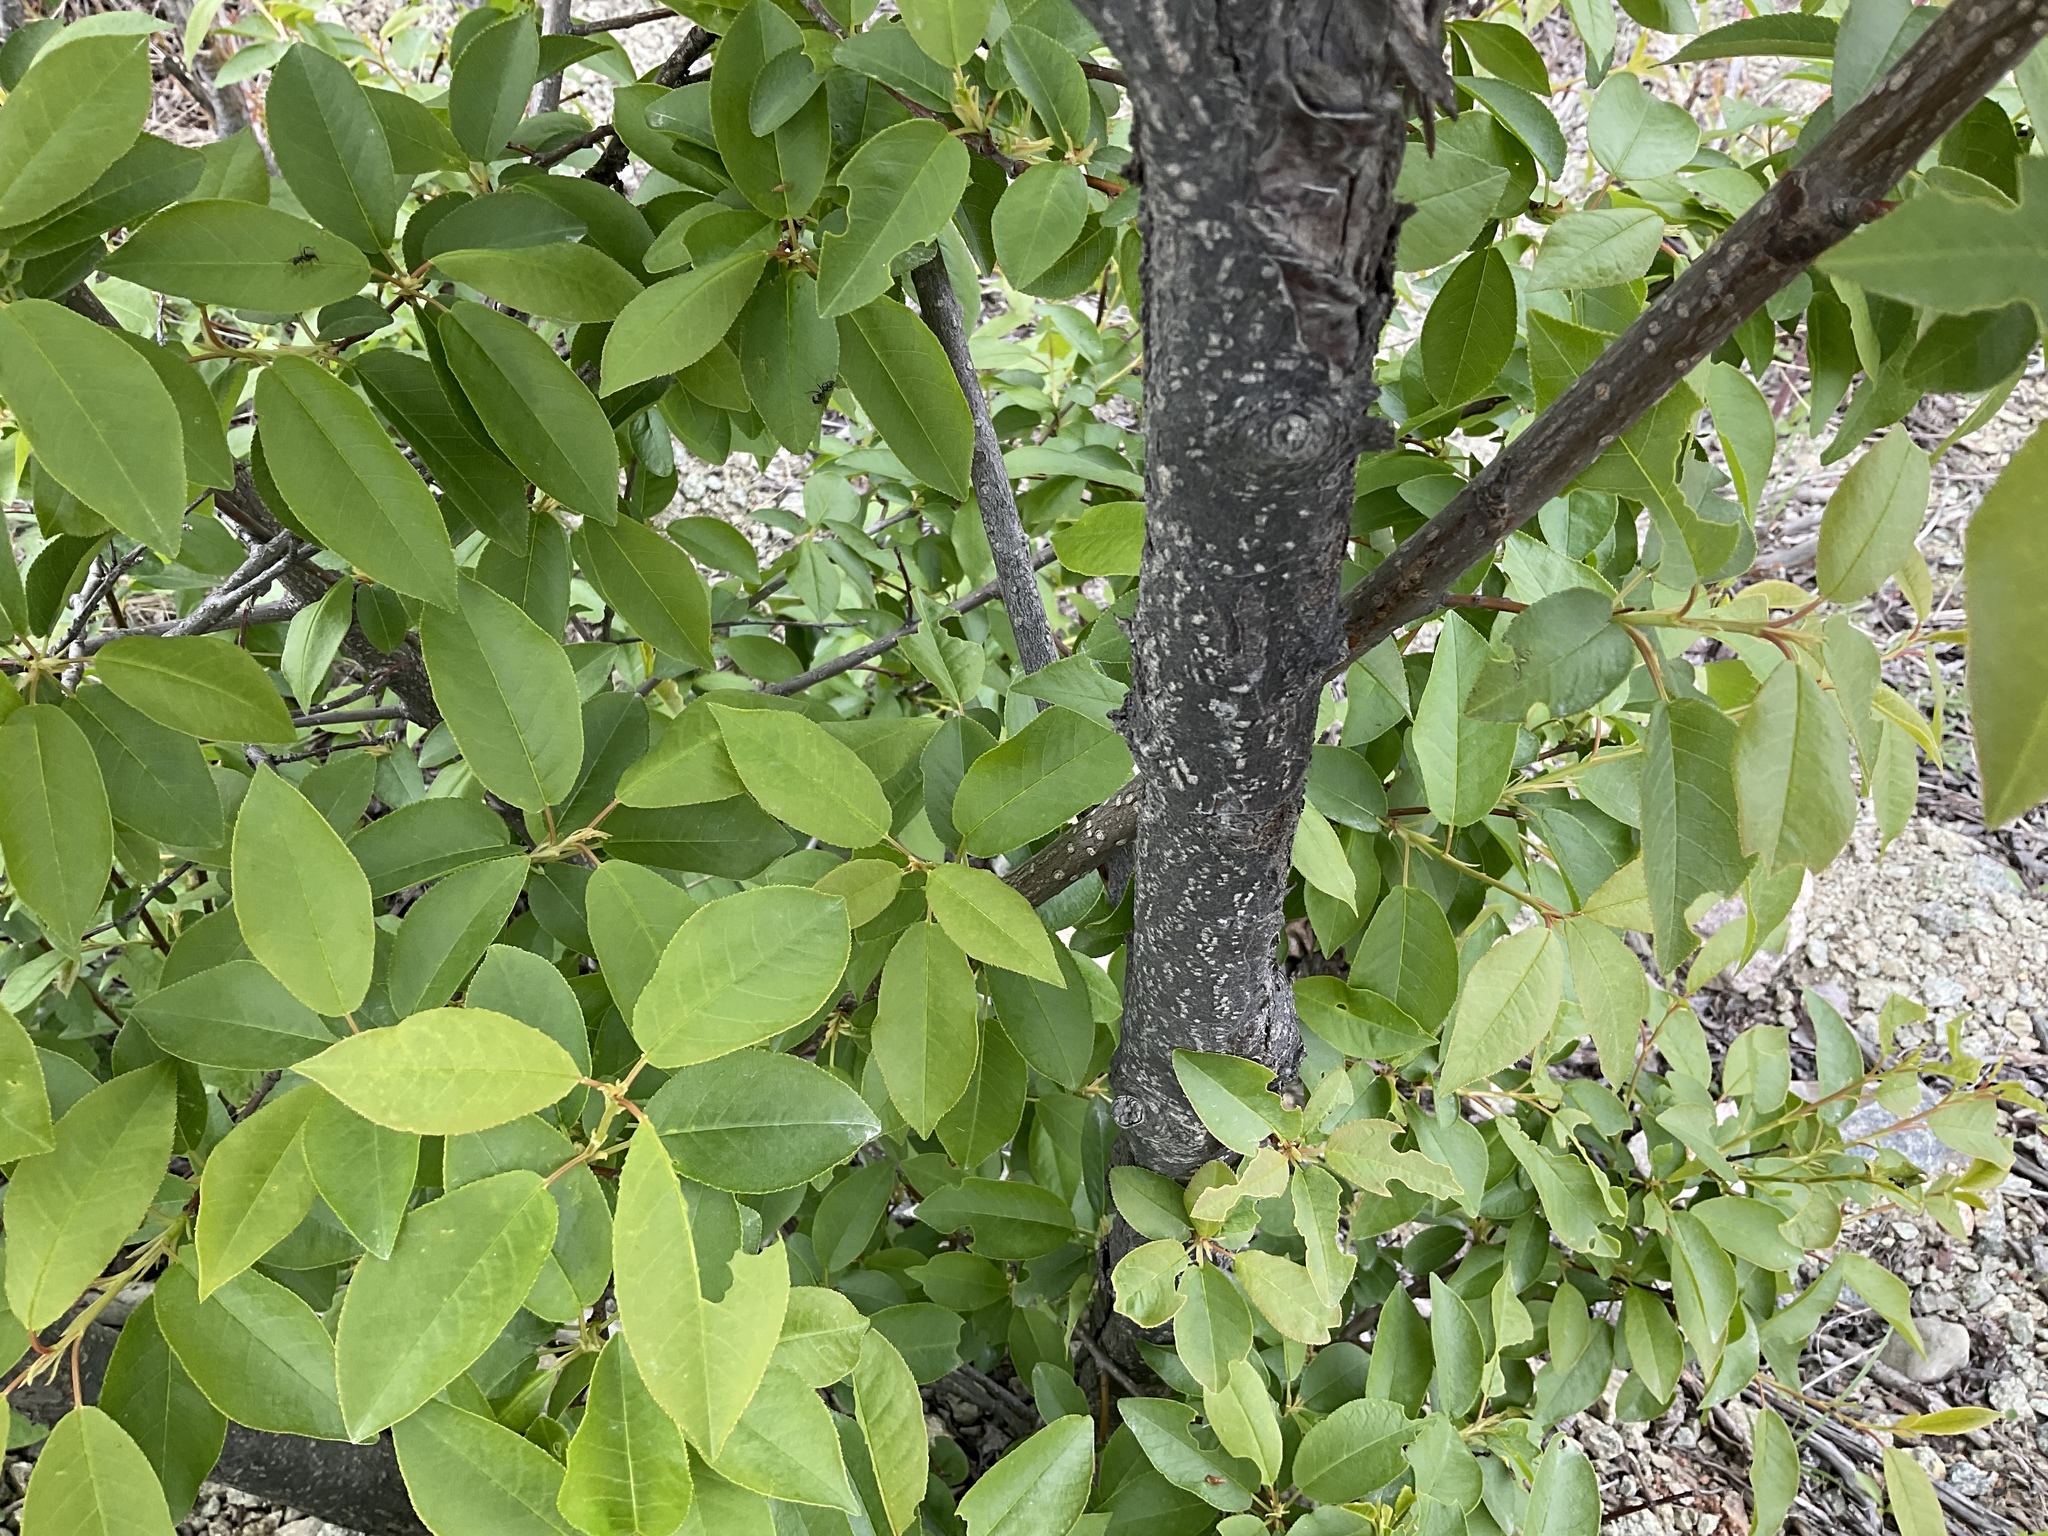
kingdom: Plantae
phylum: Tracheophyta
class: Magnoliopsida
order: Rosales
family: Rosaceae
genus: Prunus
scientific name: Prunus virginiana
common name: Chokecherry
